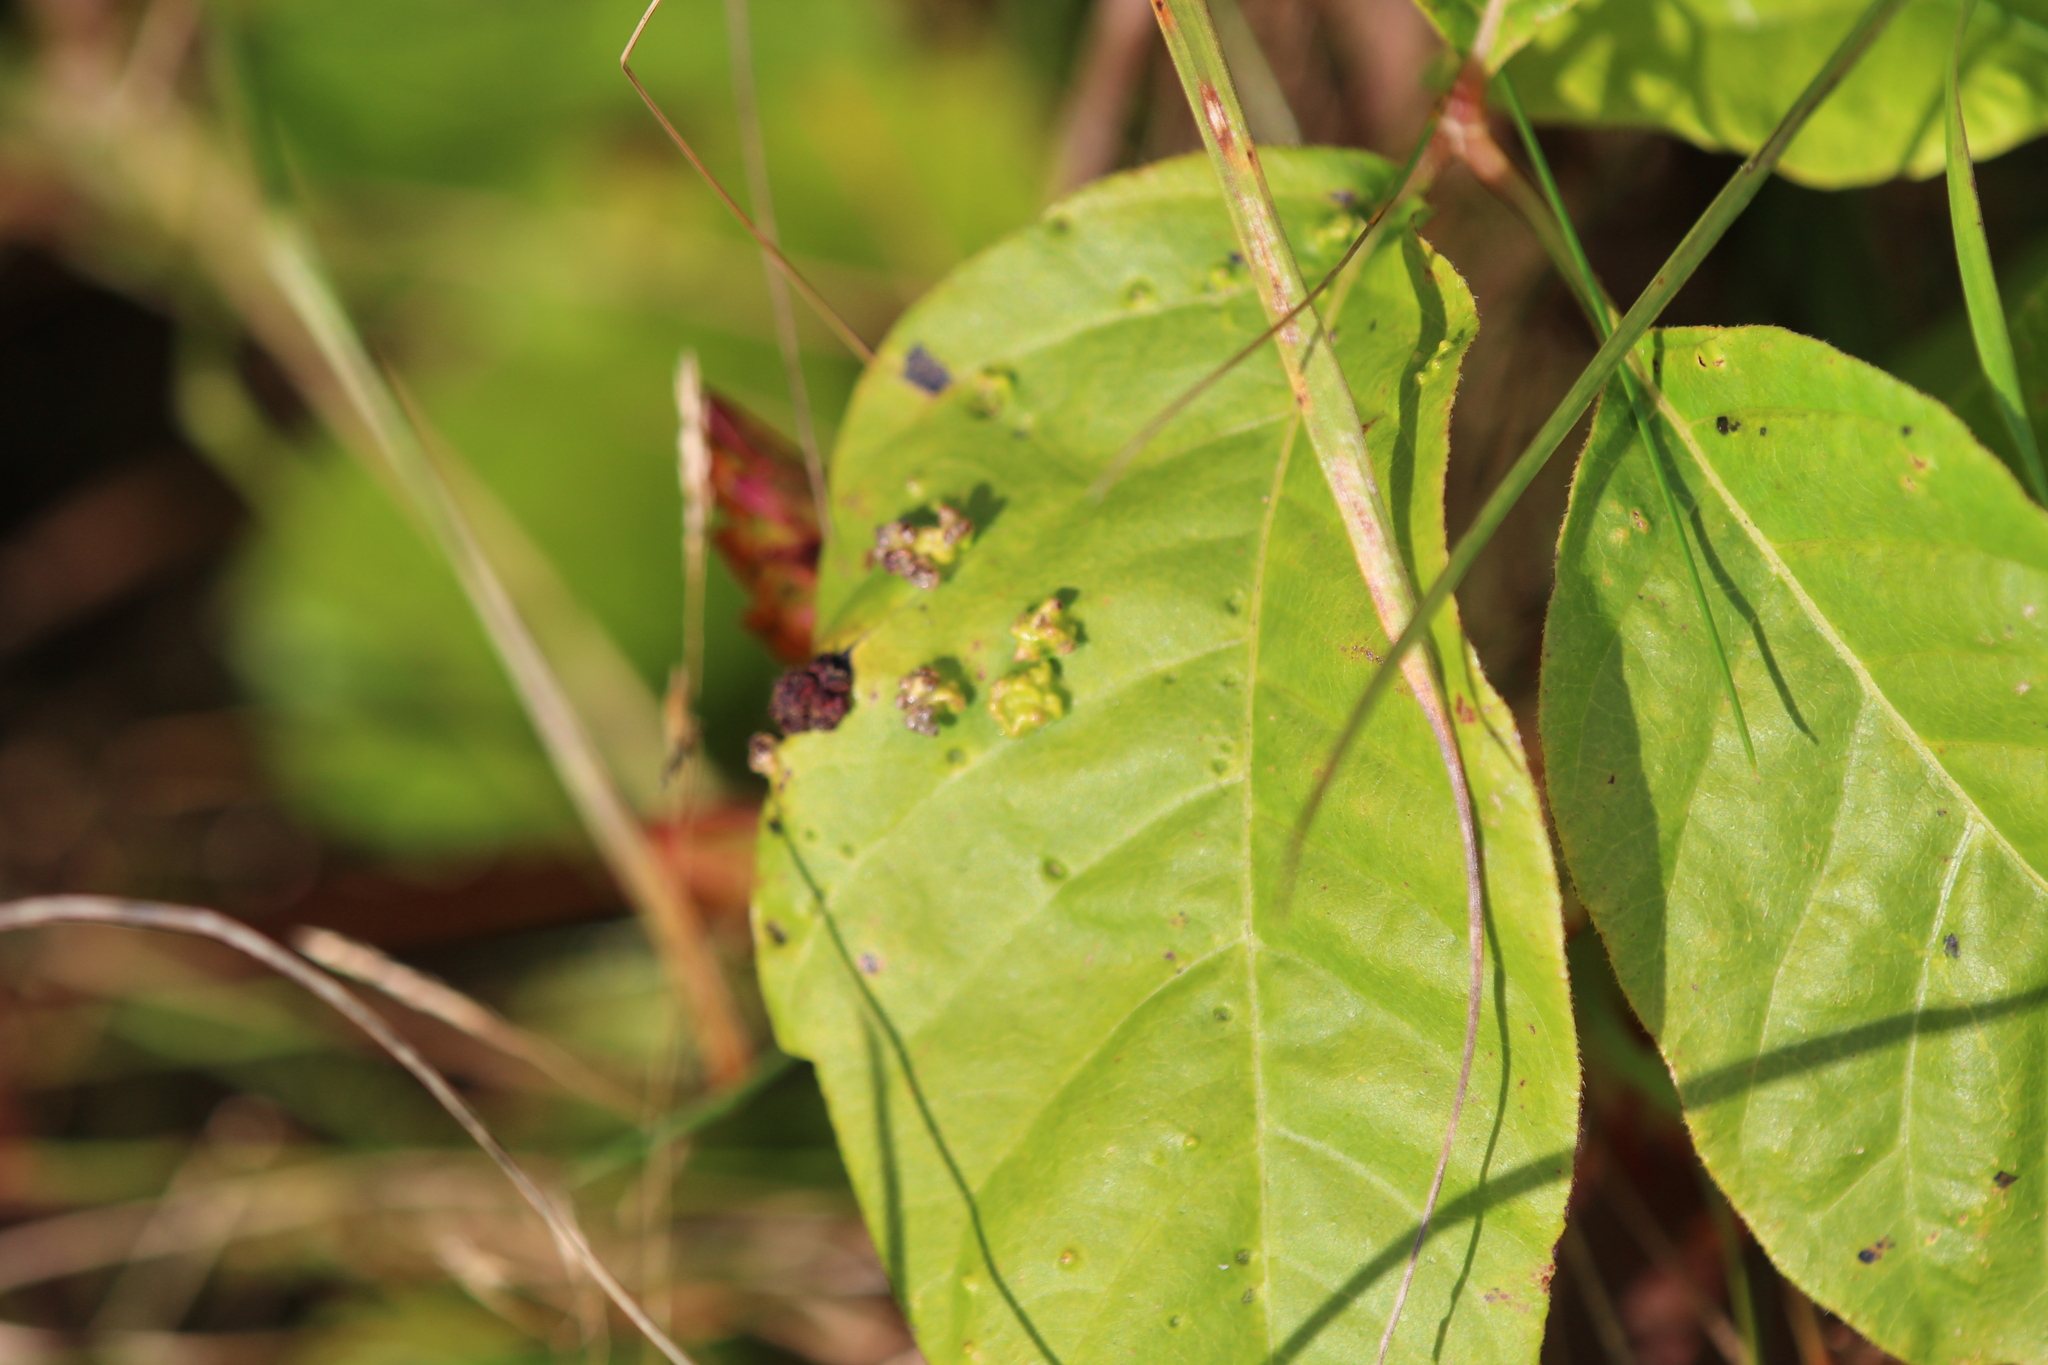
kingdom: Animalia
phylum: Arthropoda
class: Arachnida
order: Trombidiformes
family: Eriophyidae
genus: Aculops
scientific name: Aculops
